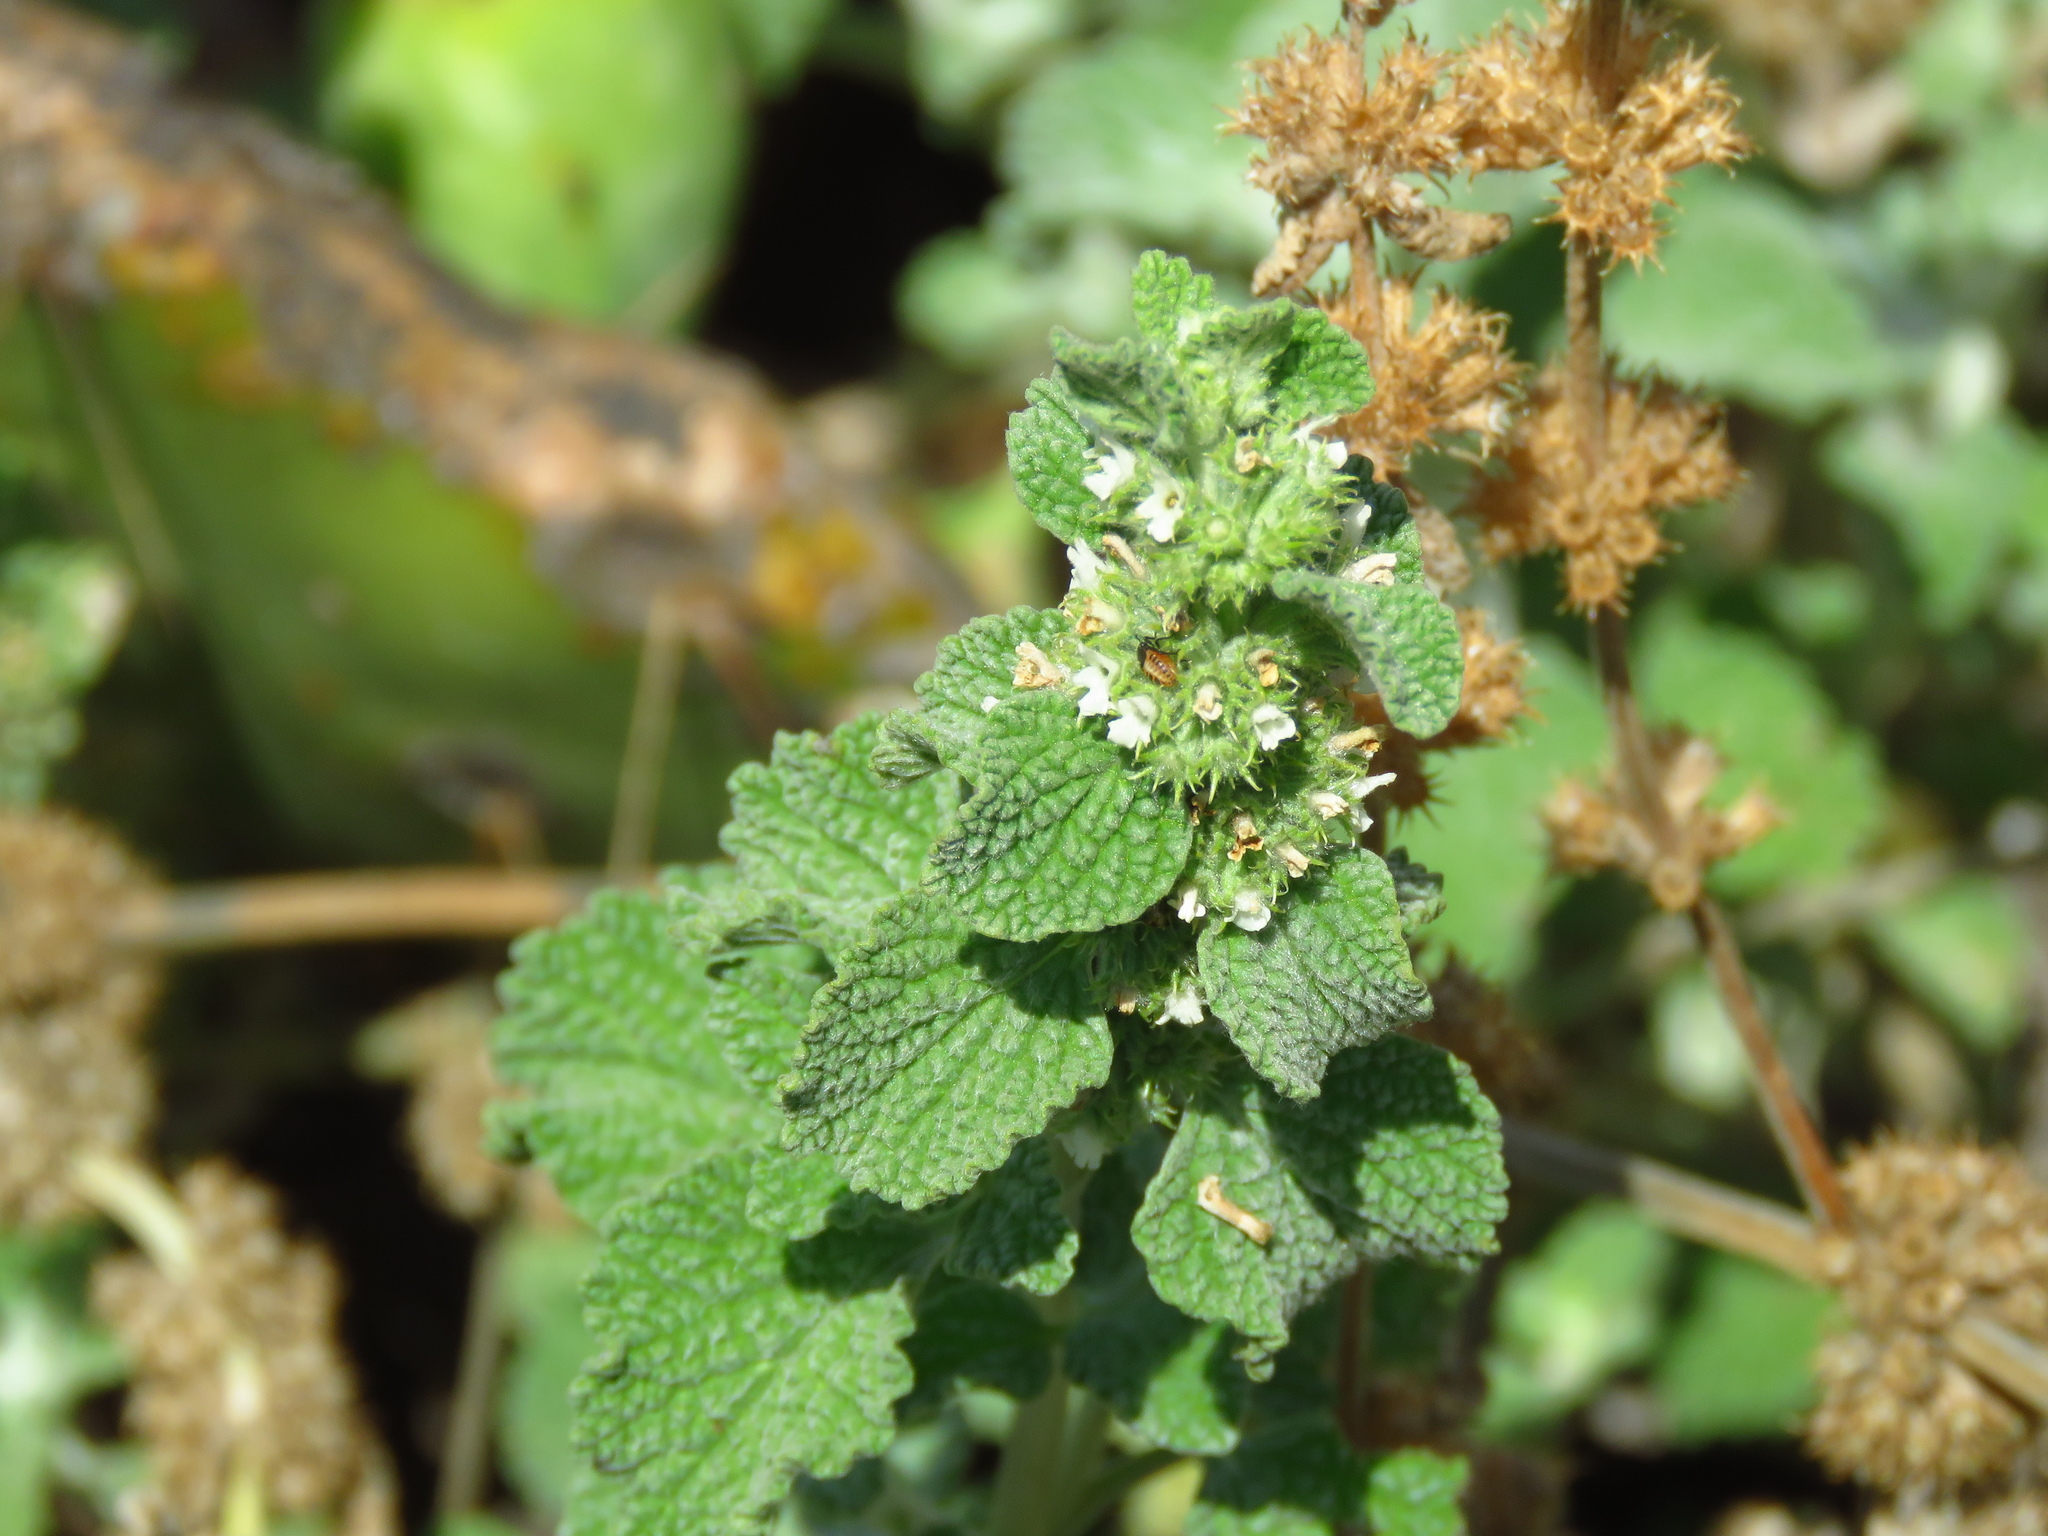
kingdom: Plantae
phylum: Tracheophyta
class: Magnoliopsida
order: Lamiales
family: Lamiaceae
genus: Marrubium
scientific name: Marrubium vulgare
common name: Horehound
